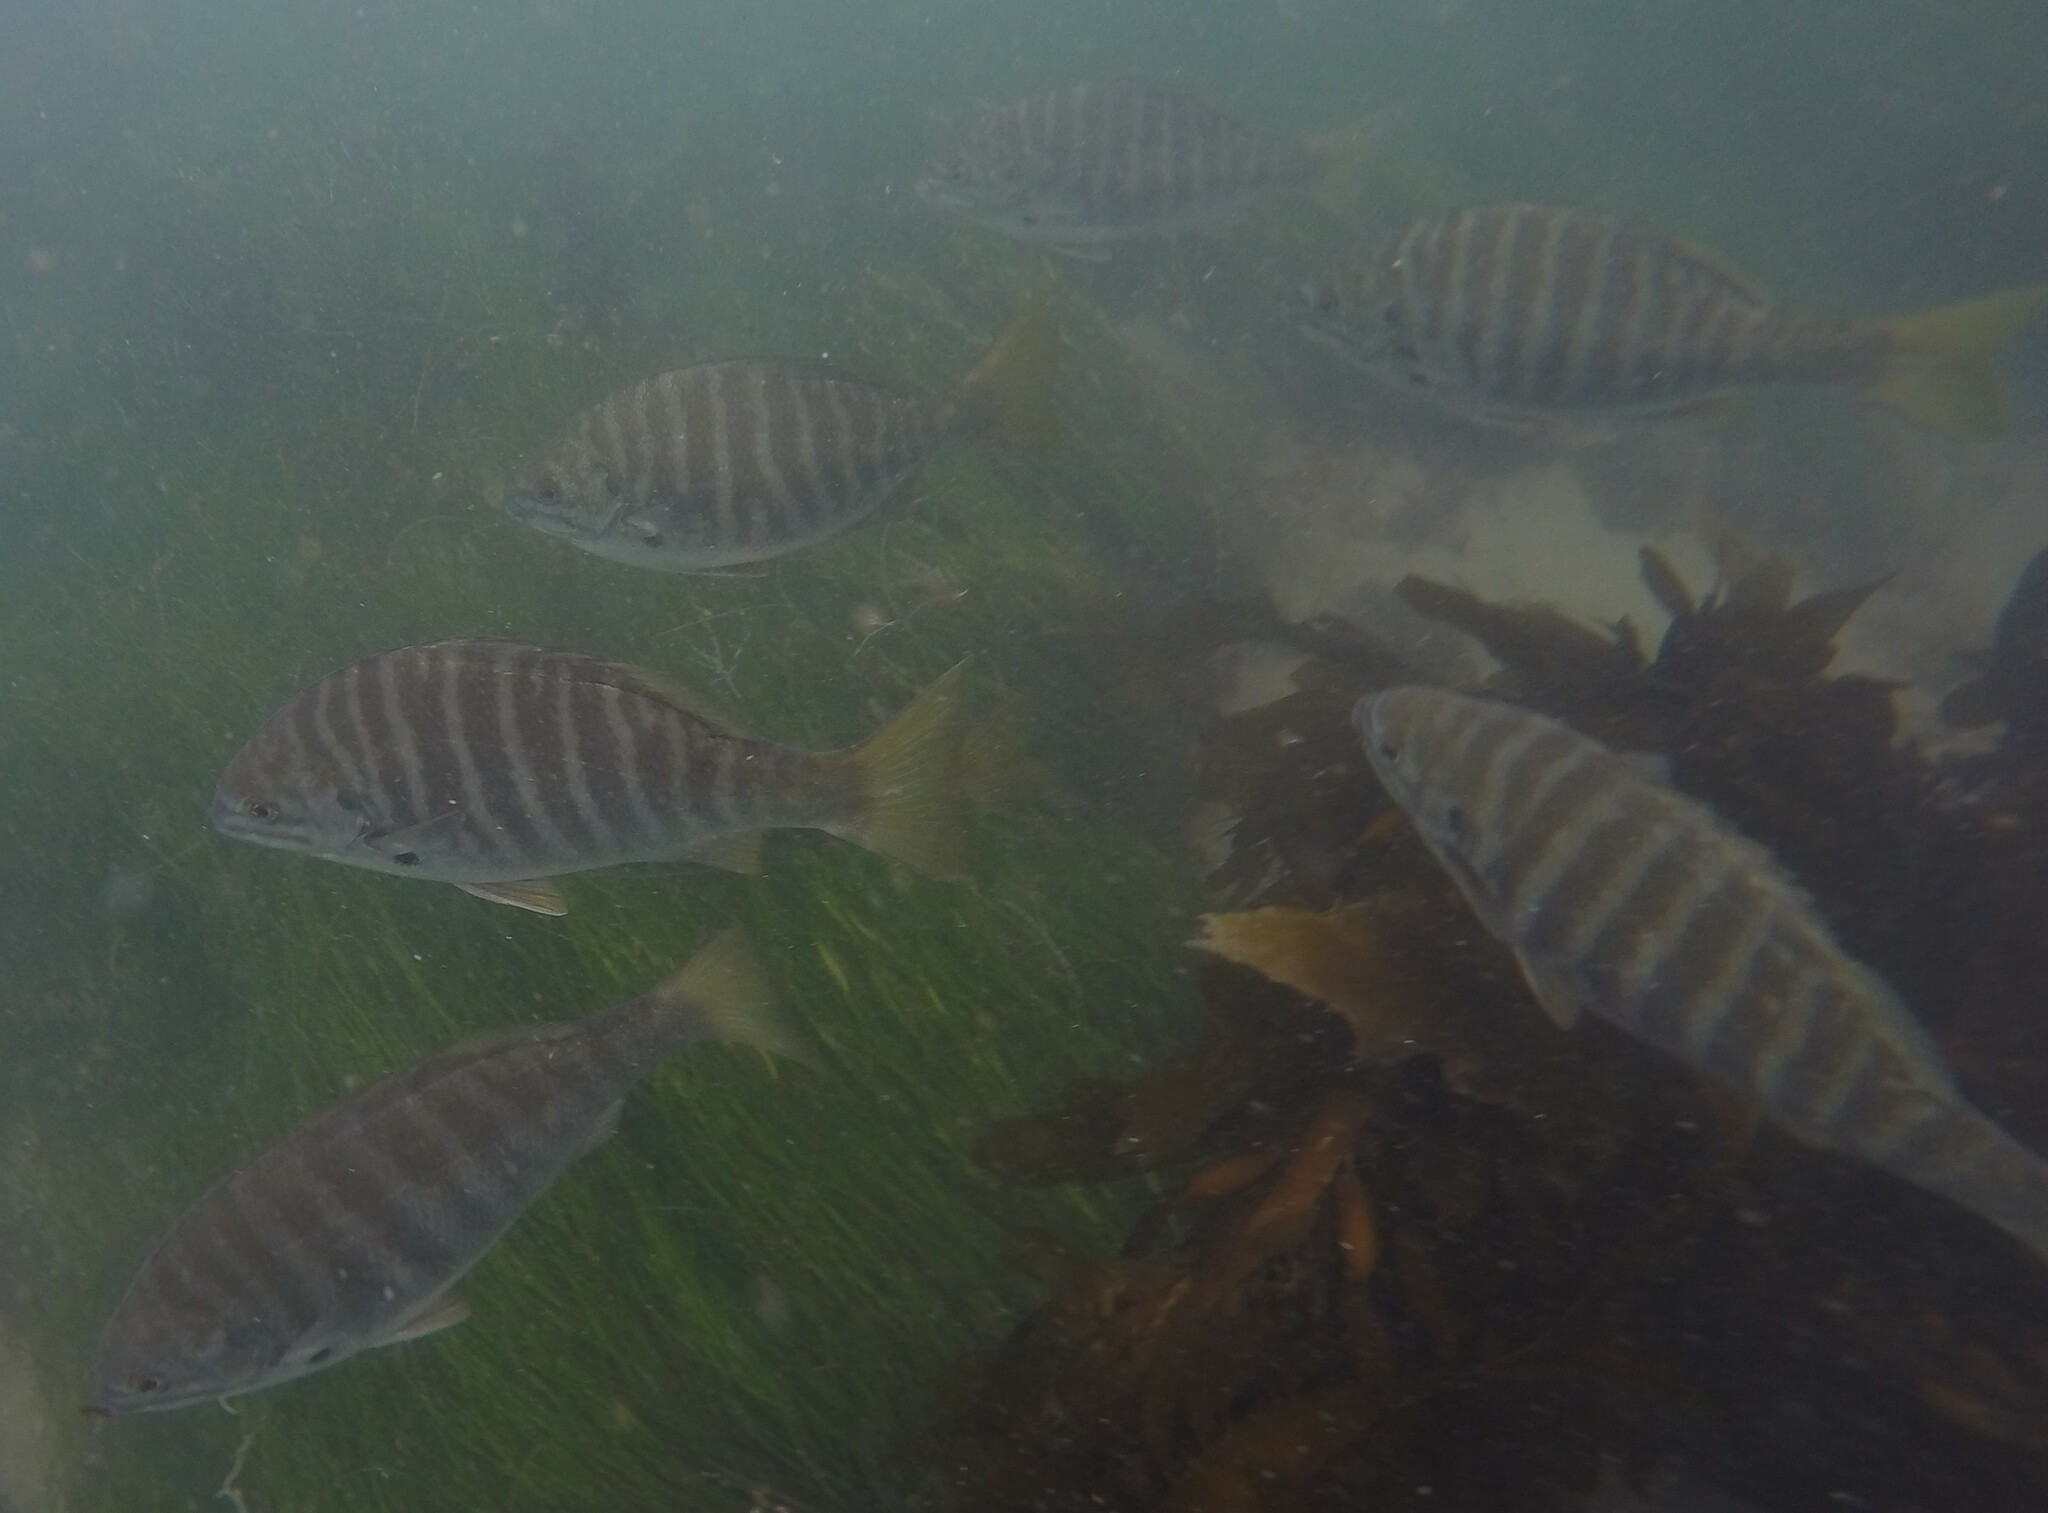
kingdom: Animalia
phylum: Chordata
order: Perciformes
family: Kyphosidae
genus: Kyphosus
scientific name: Kyphosus azureus
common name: Perch
